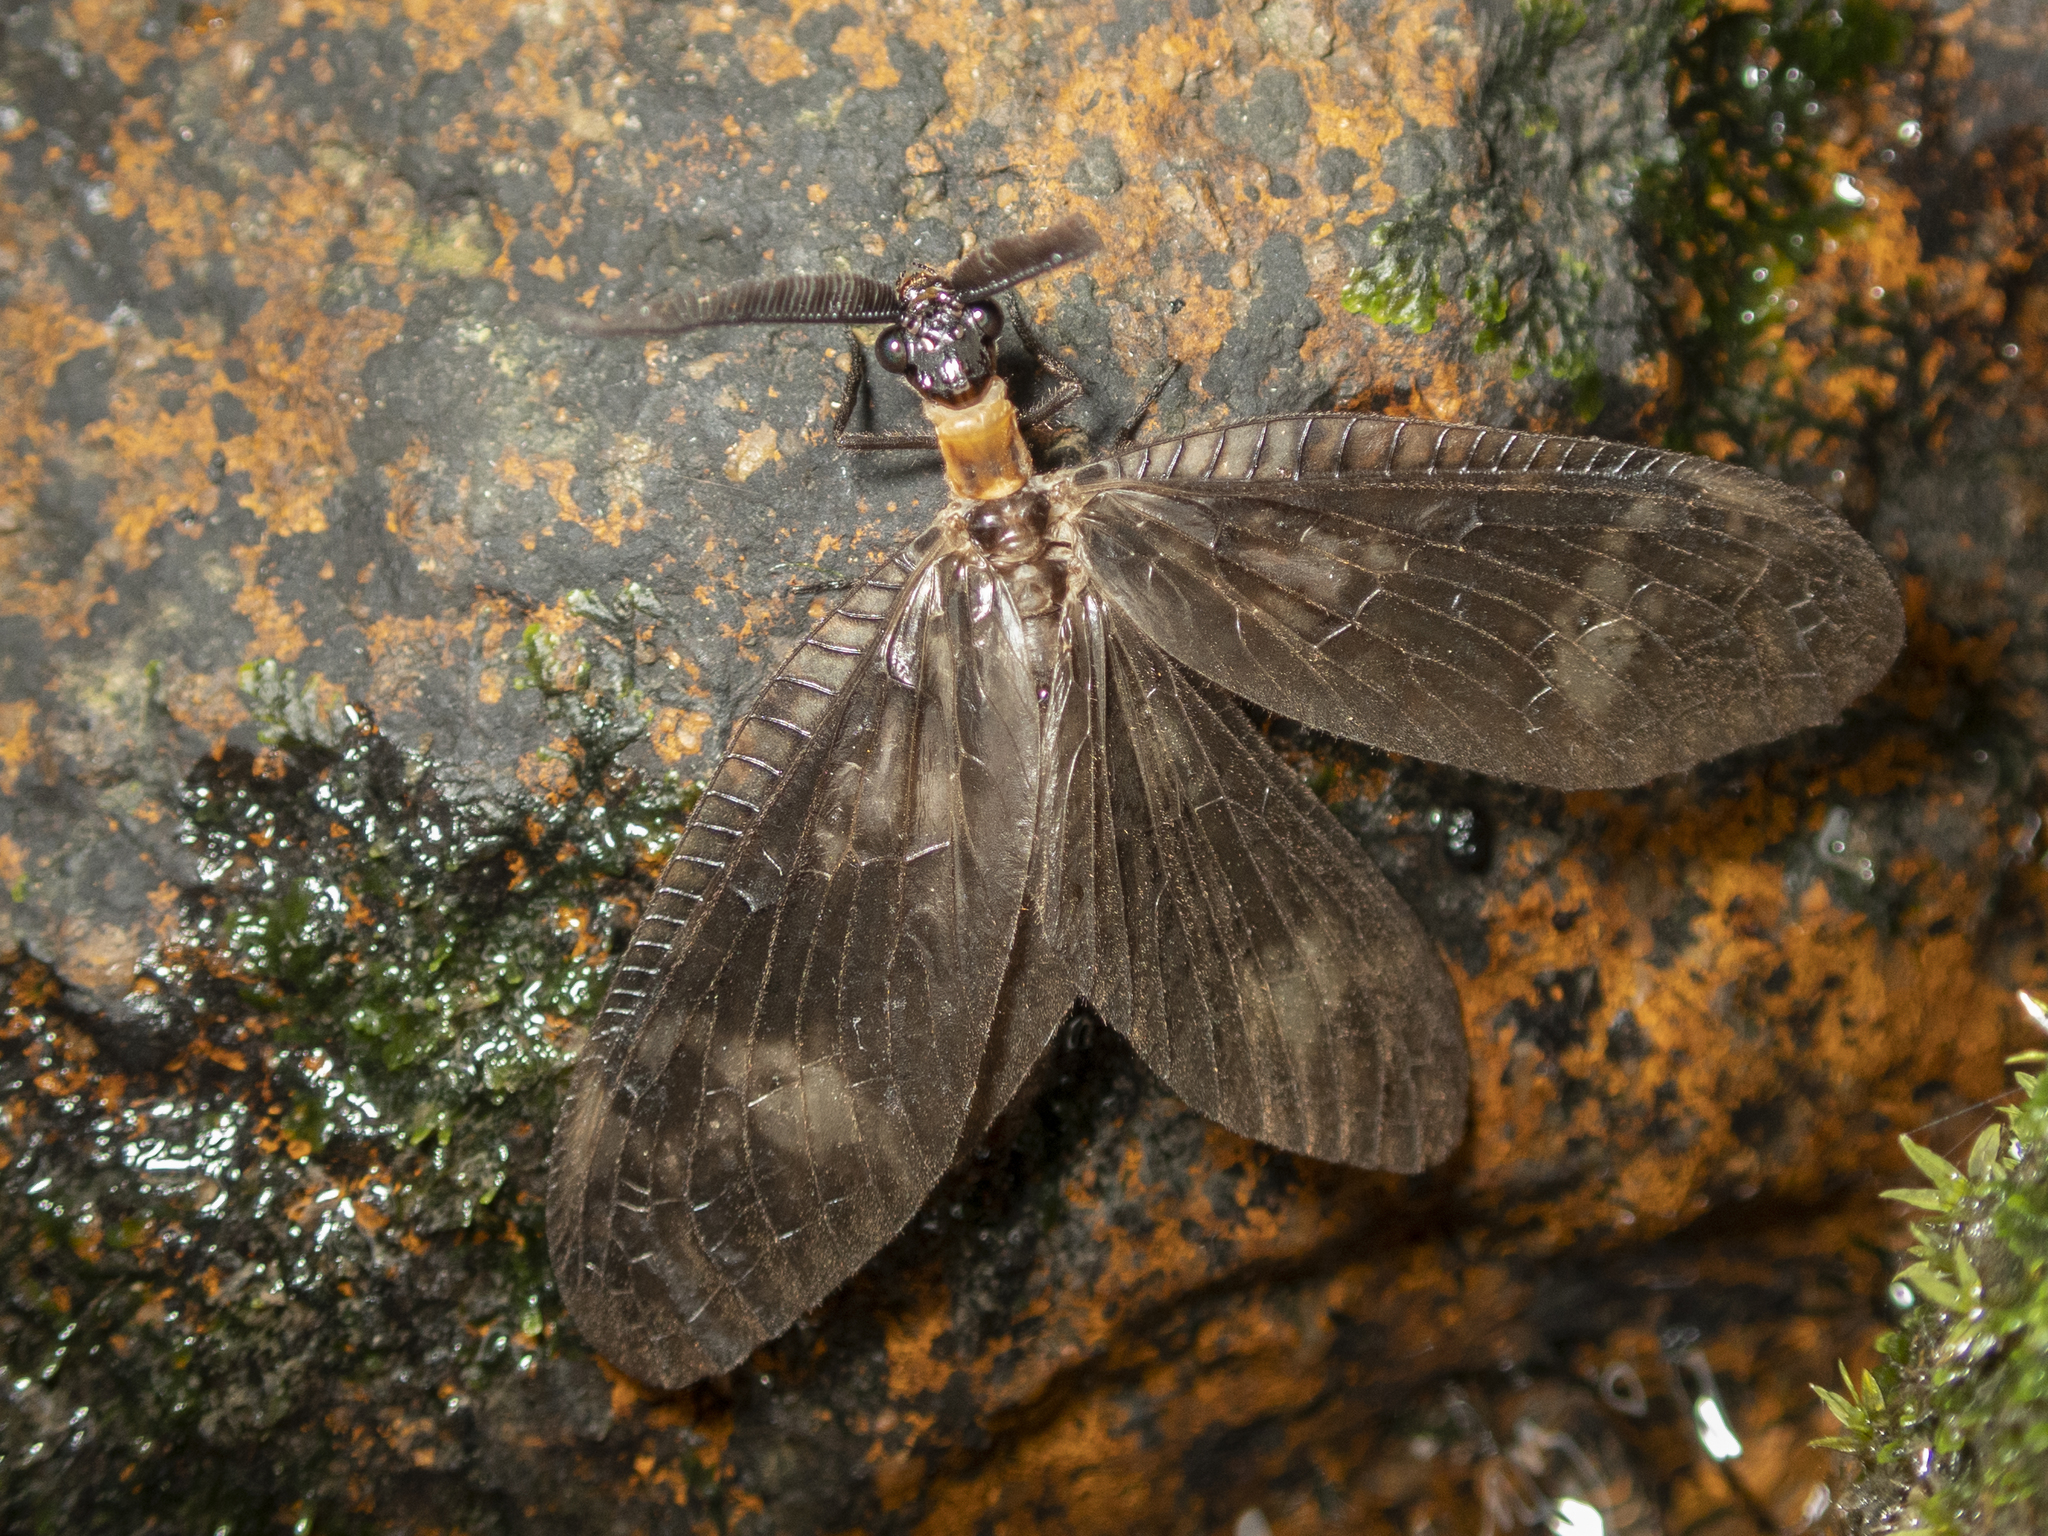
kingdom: Animalia
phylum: Arthropoda
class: Insecta
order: Megaloptera
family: Corydalidae
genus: Neochauliodes
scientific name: Neochauliodes koreanus
